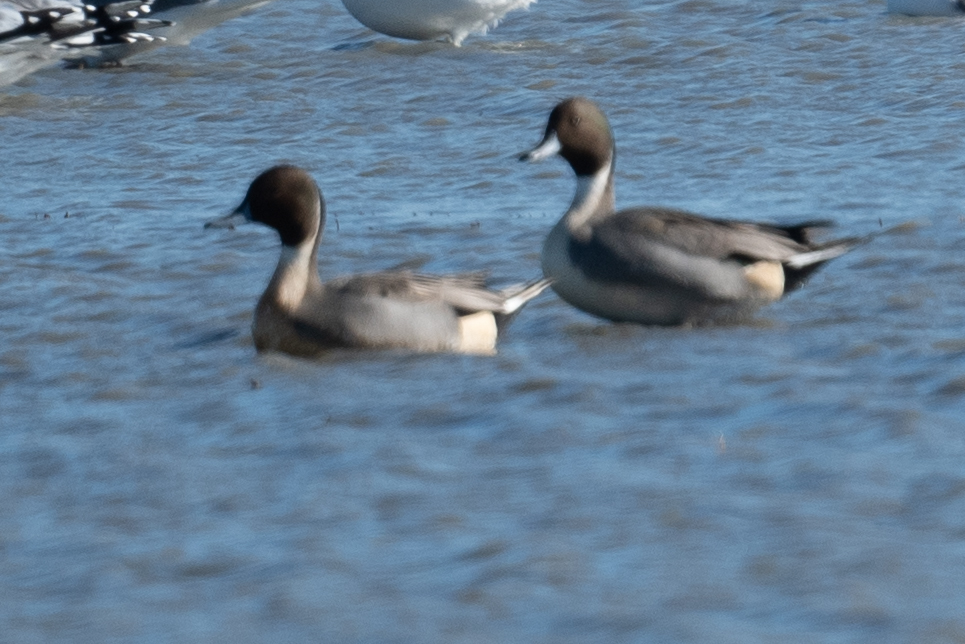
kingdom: Animalia
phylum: Chordata
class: Aves
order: Anseriformes
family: Anatidae
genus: Anas
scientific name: Anas acuta
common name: Northern pintail
